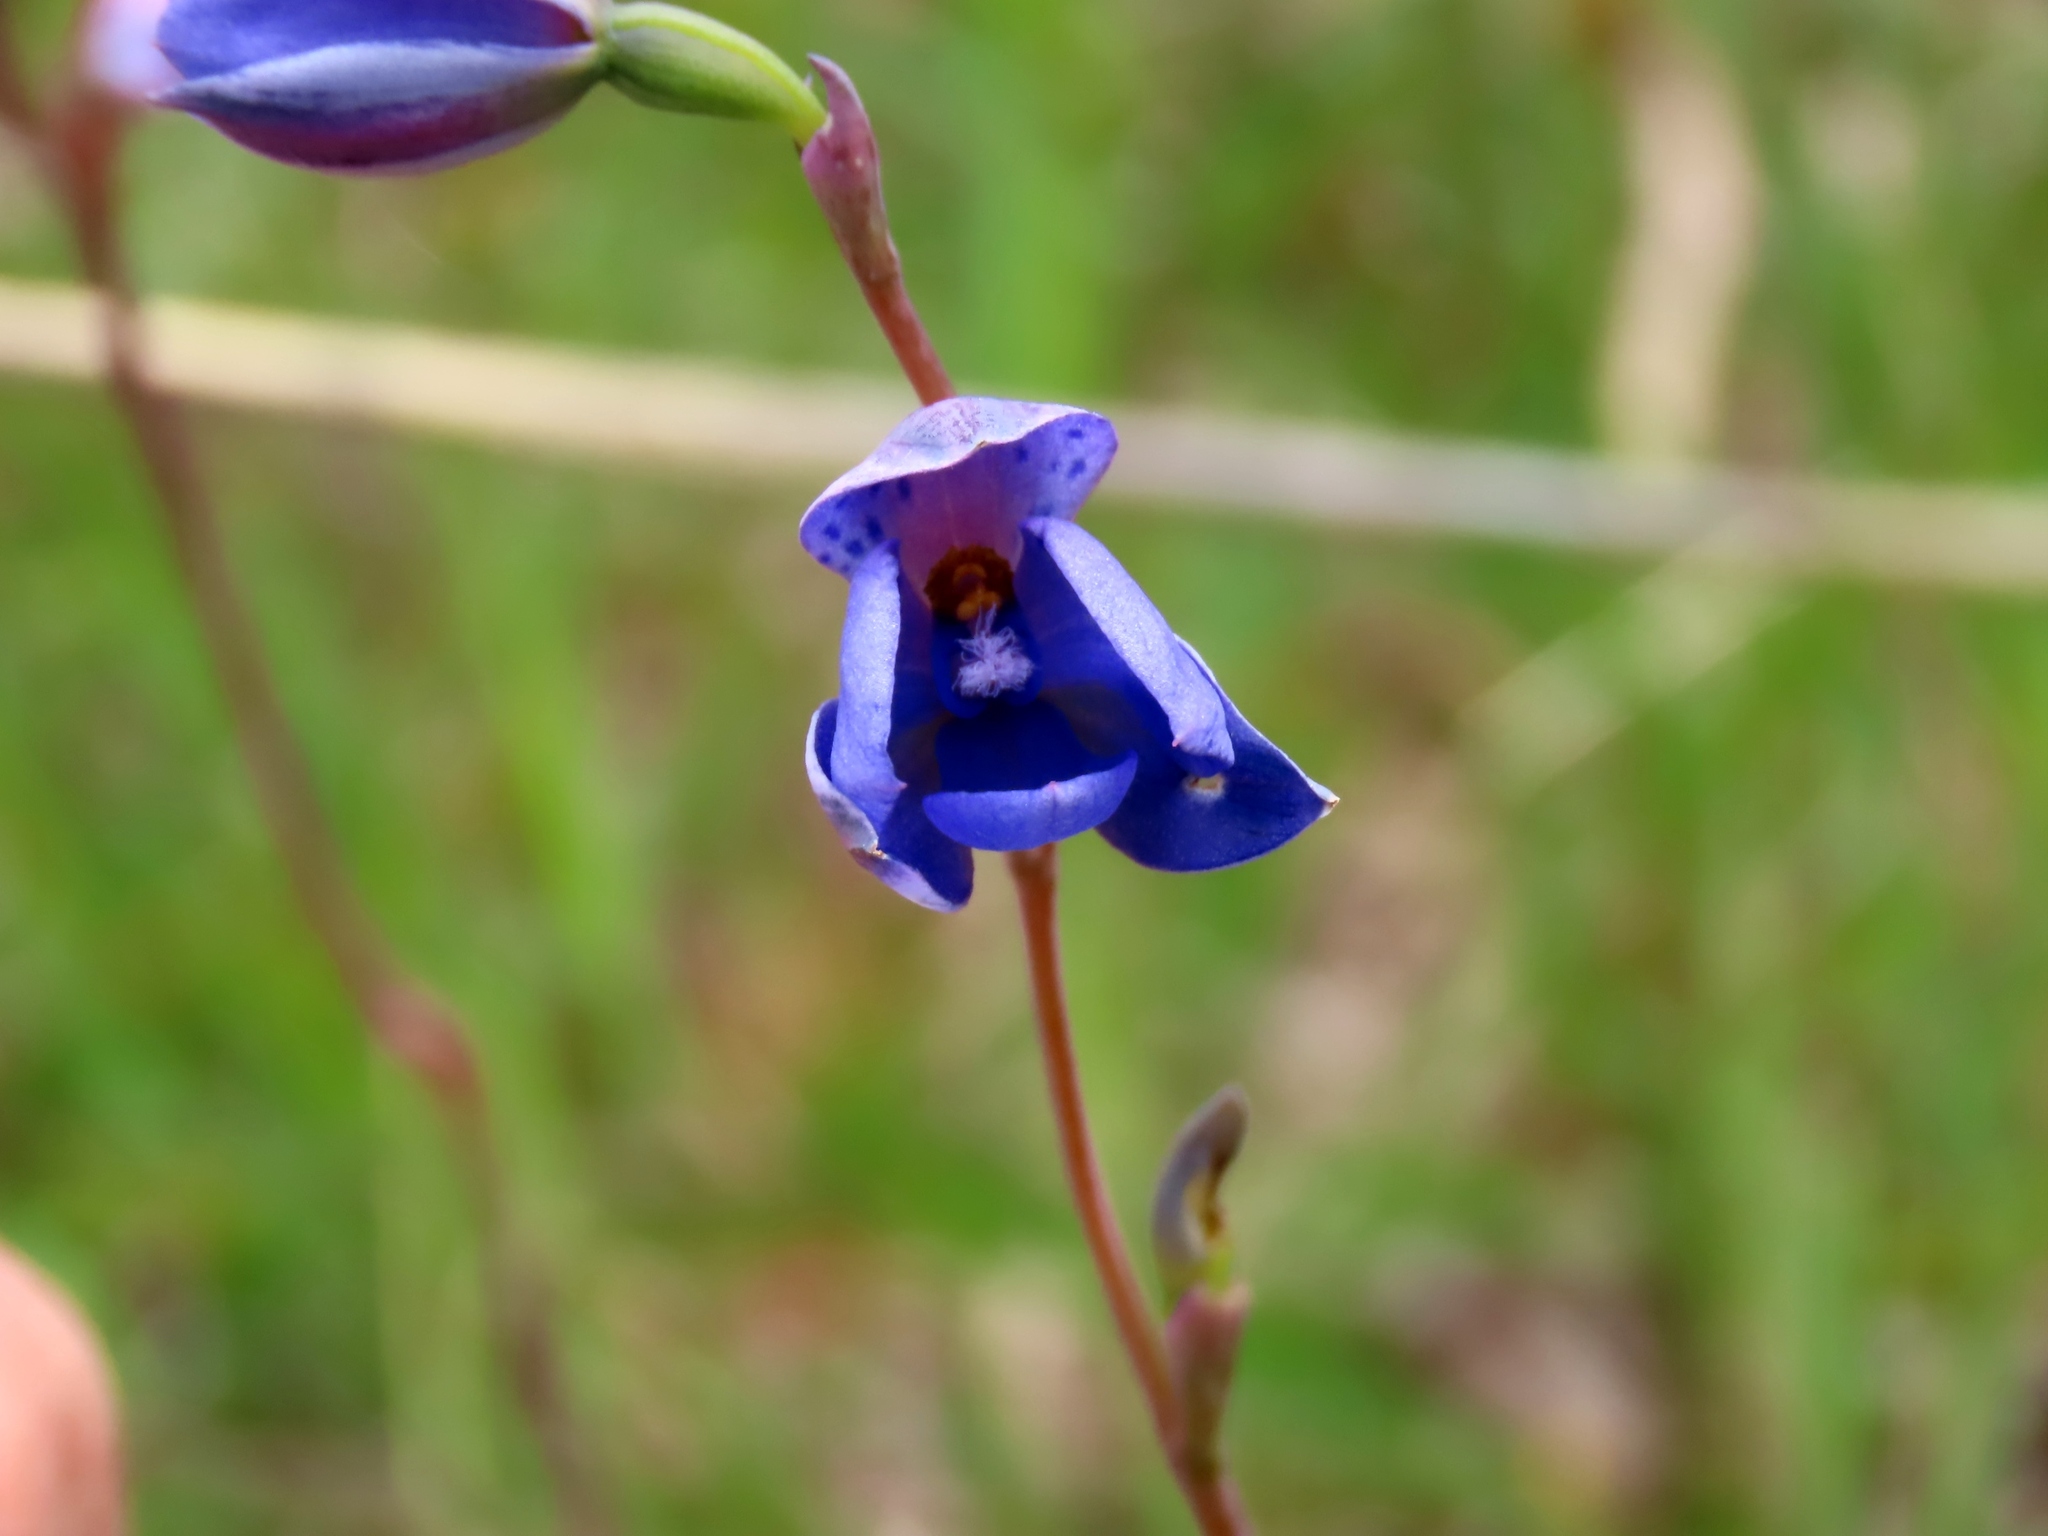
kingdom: Plantae
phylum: Tracheophyta
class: Liliopsida
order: Asparagales
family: Orchidaceae
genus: Thelymitra
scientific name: Thelymitra ixioides
